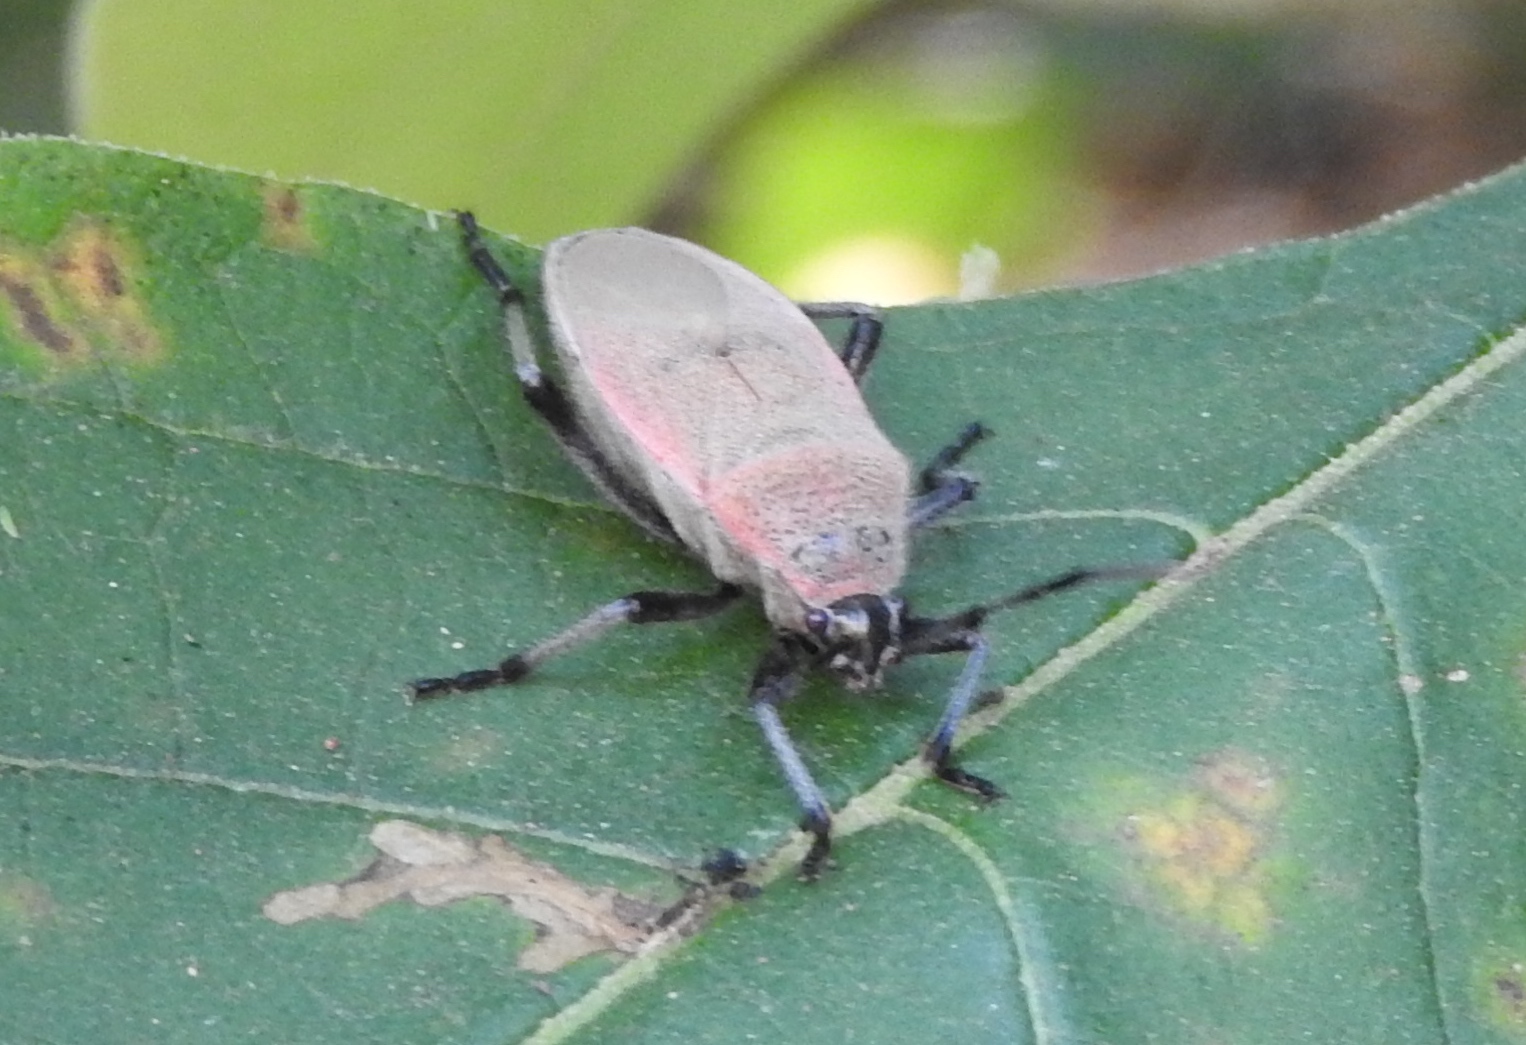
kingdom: Animalia
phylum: Arthropoda
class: Insecta
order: Hemiptera
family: Largidae
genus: Largus
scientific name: Largus
